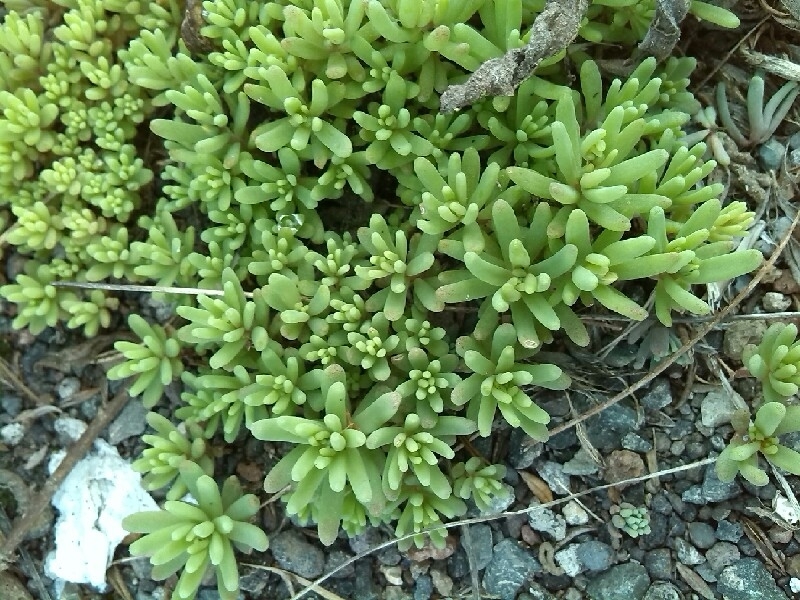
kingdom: Plantae
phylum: Tracheophyta
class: Magnoliopsida
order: Caryophyllales
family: Aizoaceae
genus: Mesembryanthemum
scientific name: Mesembryanthemum nodiflorum
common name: Slenderleaf iceplant
